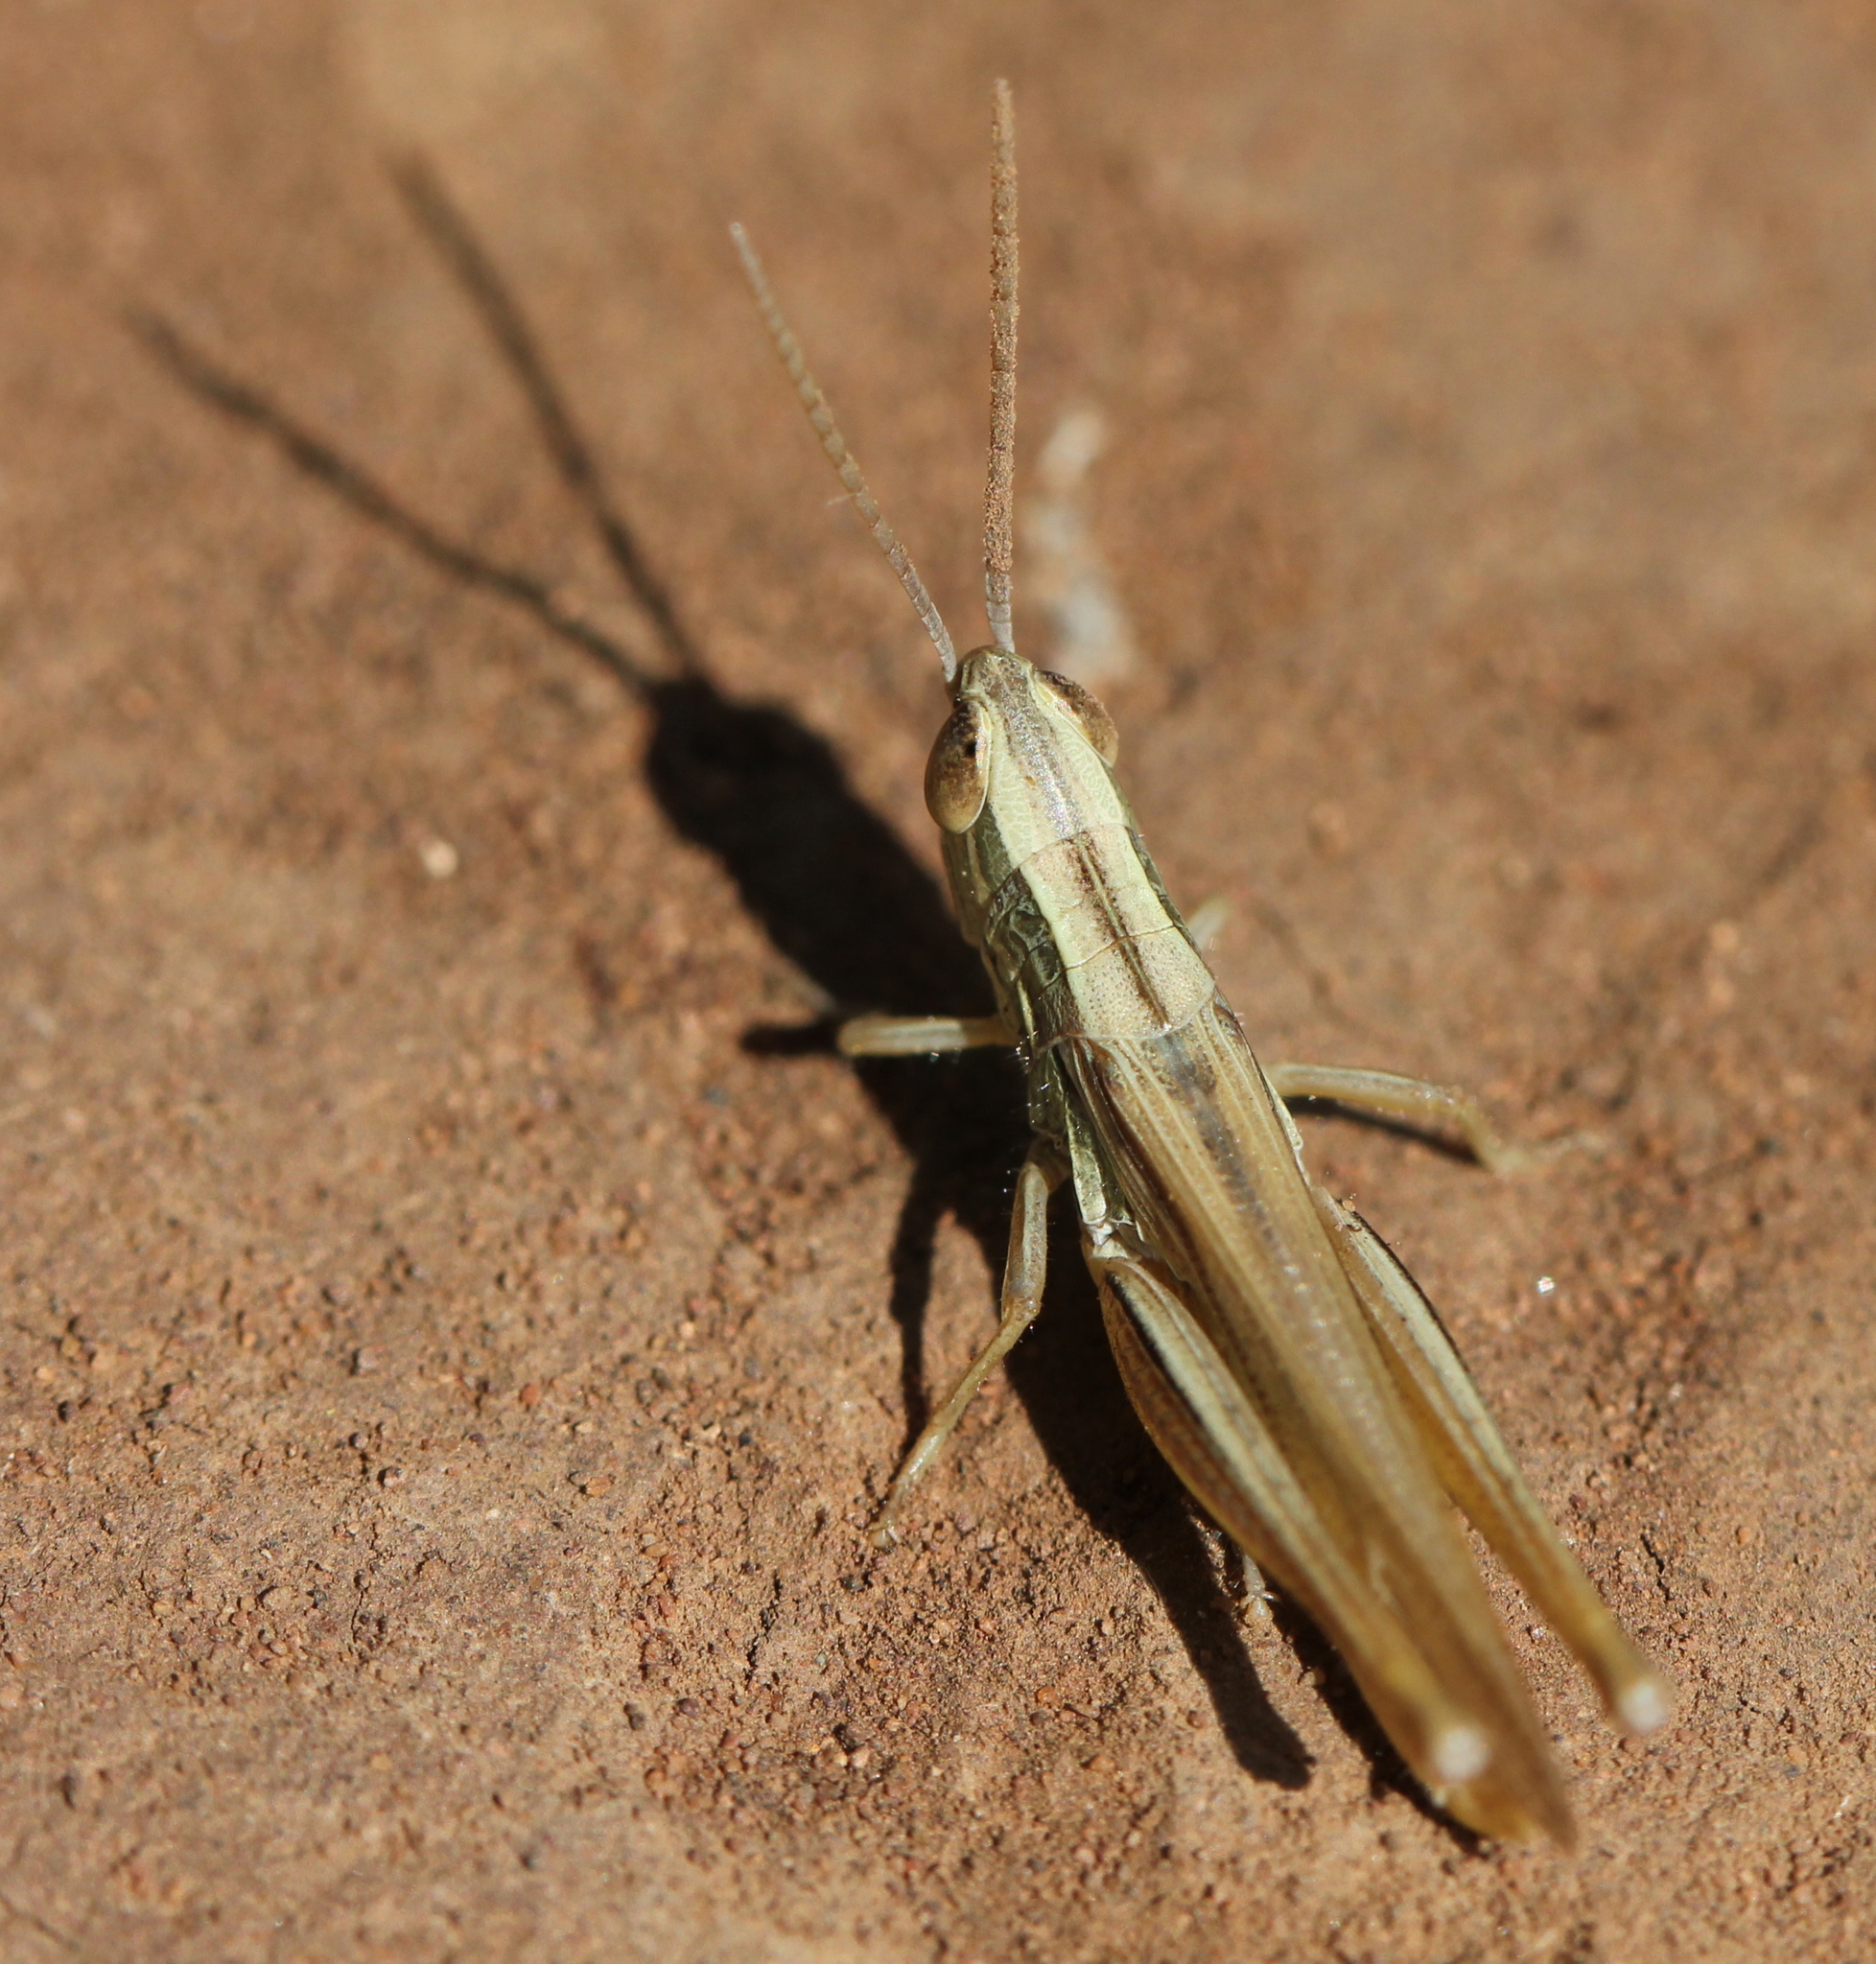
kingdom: Animalia
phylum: Arthropoda
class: Insecta
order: Orthoptera
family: Acrididae
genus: Euchorthippus
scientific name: Euchorthippus pulvinatus
